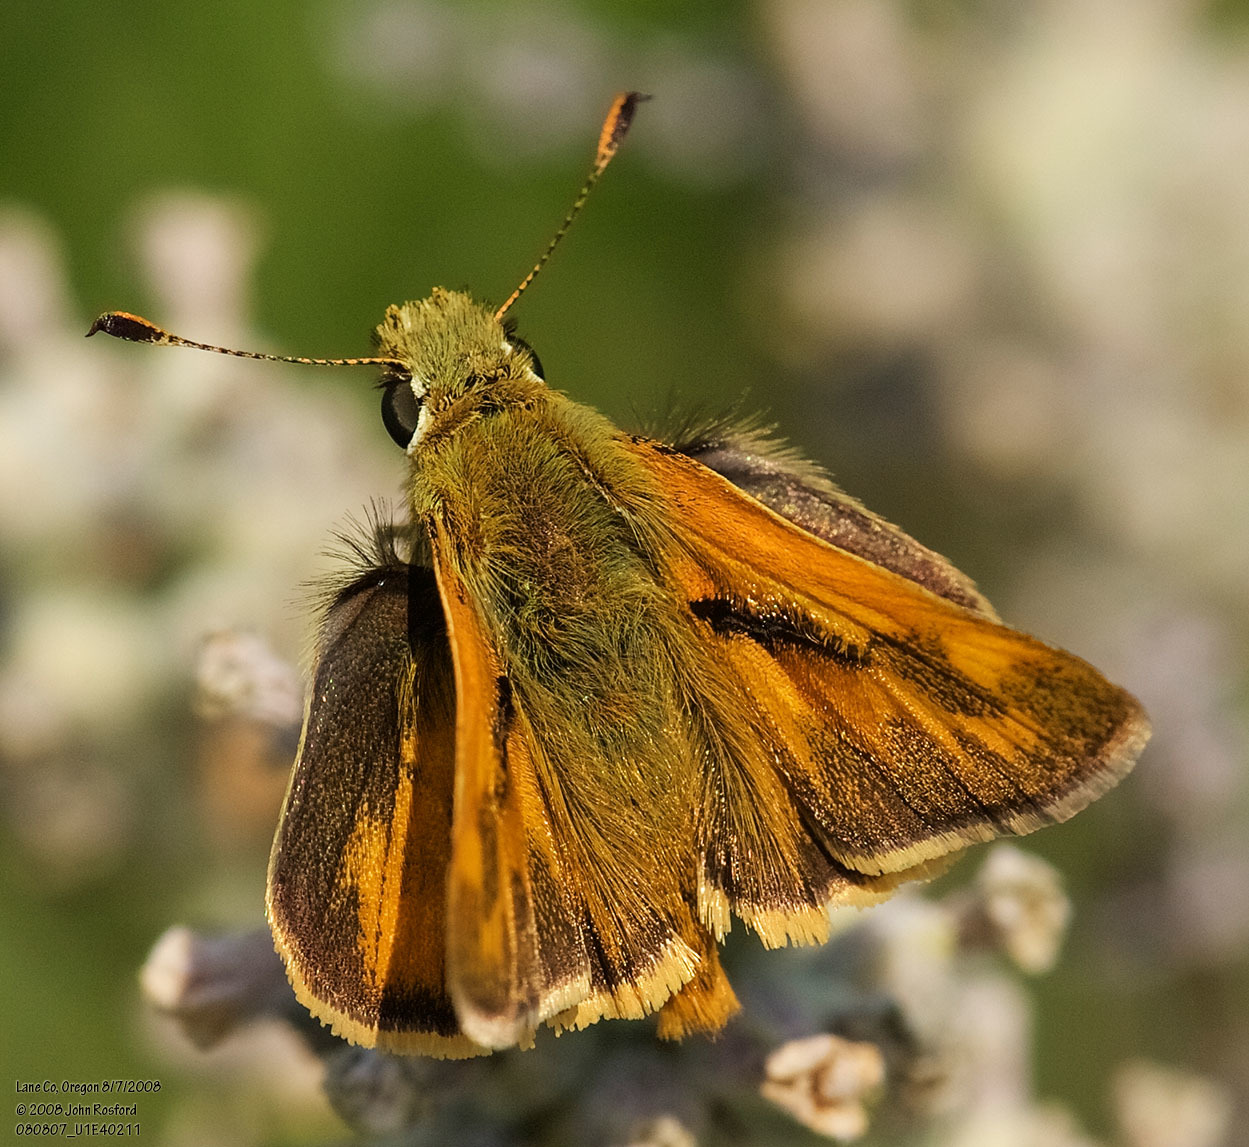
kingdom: Animalia
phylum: Arthropoda
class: Insecta
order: Lepidoptera
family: Hesperiidae
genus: Ochlodes
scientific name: Ochlodes sylvanoides
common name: Woodland skipper
